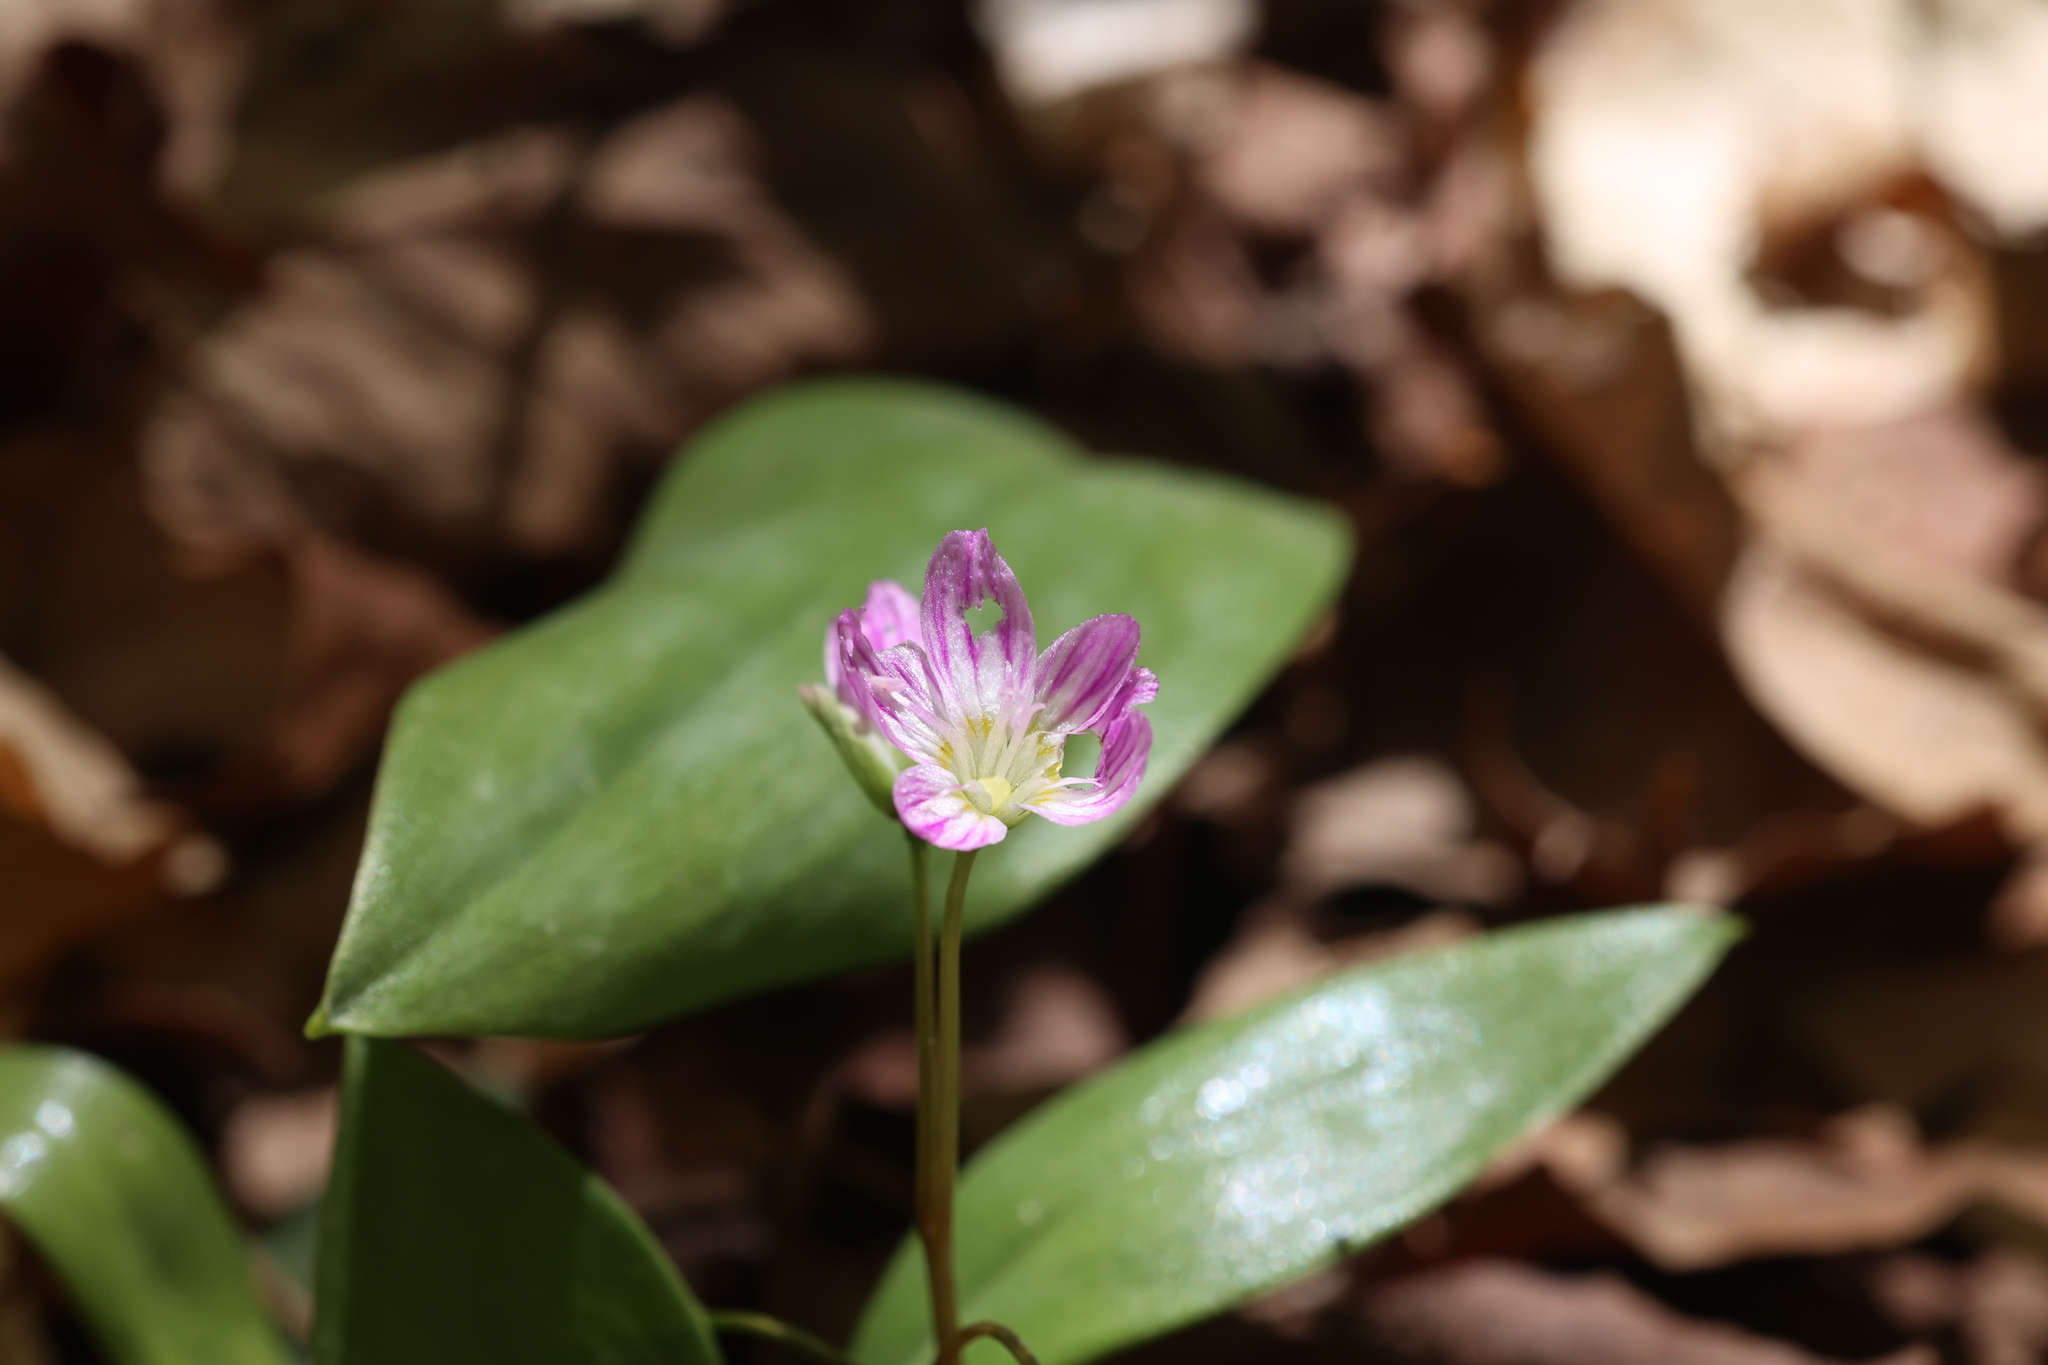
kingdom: Plantae
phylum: Tracheophyta
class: Magnoliopsida
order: Caryophyllales
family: Montiaceae
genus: Claytonia
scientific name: Claytonia caroliniana
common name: Carolina spring beauty
